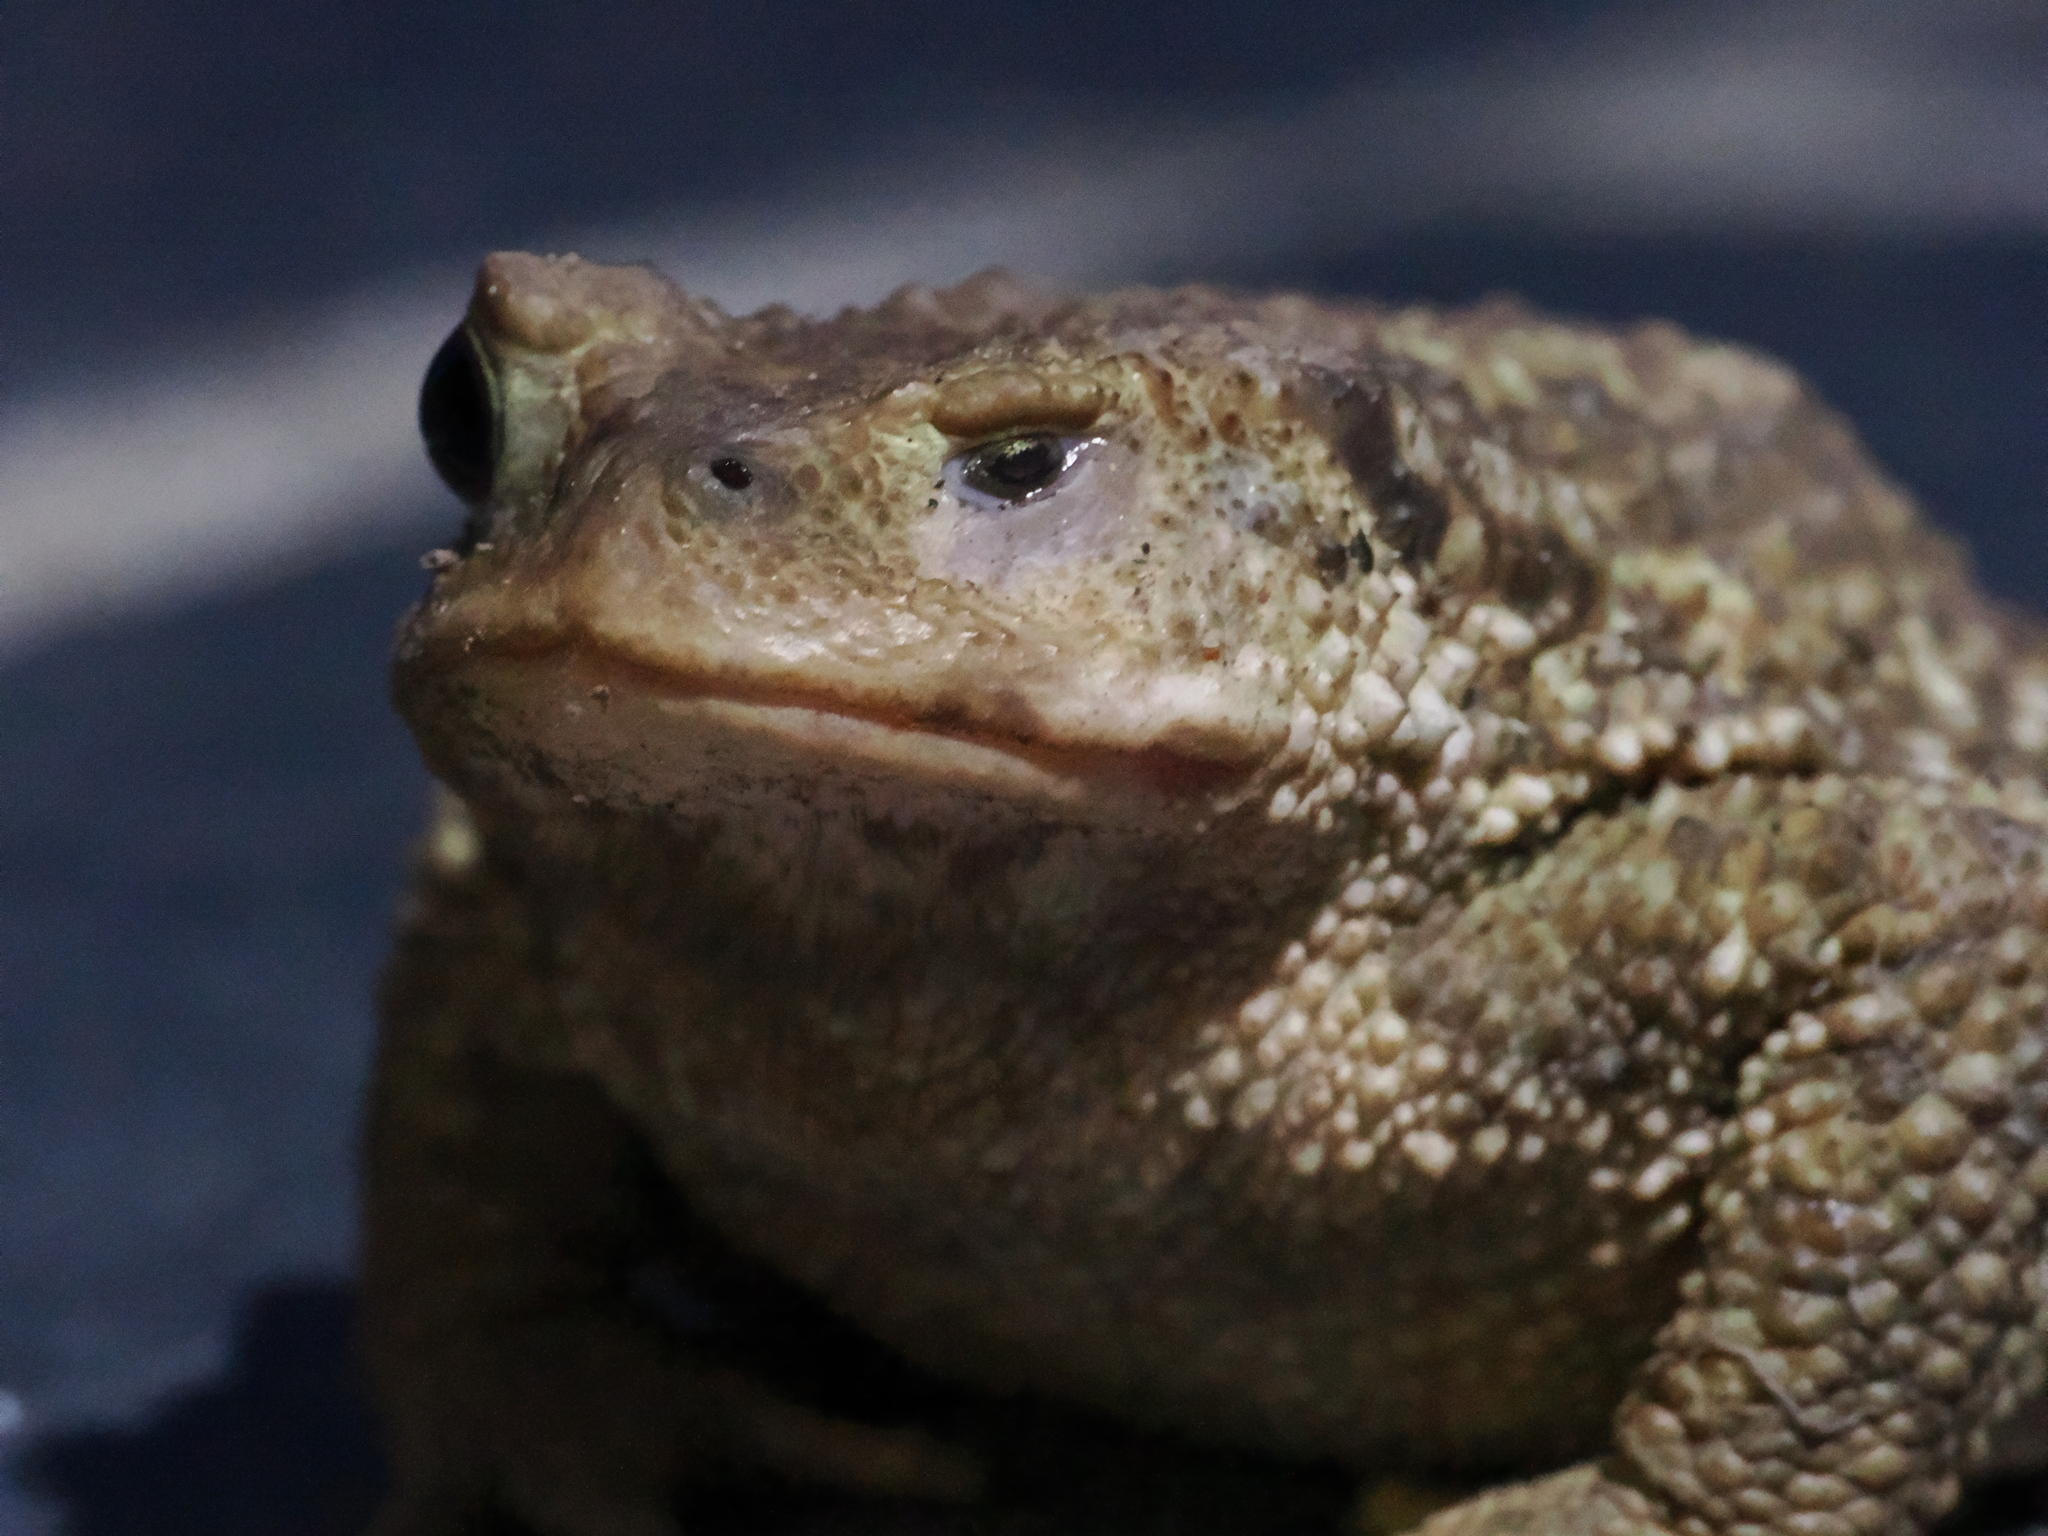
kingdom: Animalia
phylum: Chordata
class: Amphibia
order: Anura
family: Bufonidae
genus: Bufo
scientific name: Bufo spinosus
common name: Western common toad
